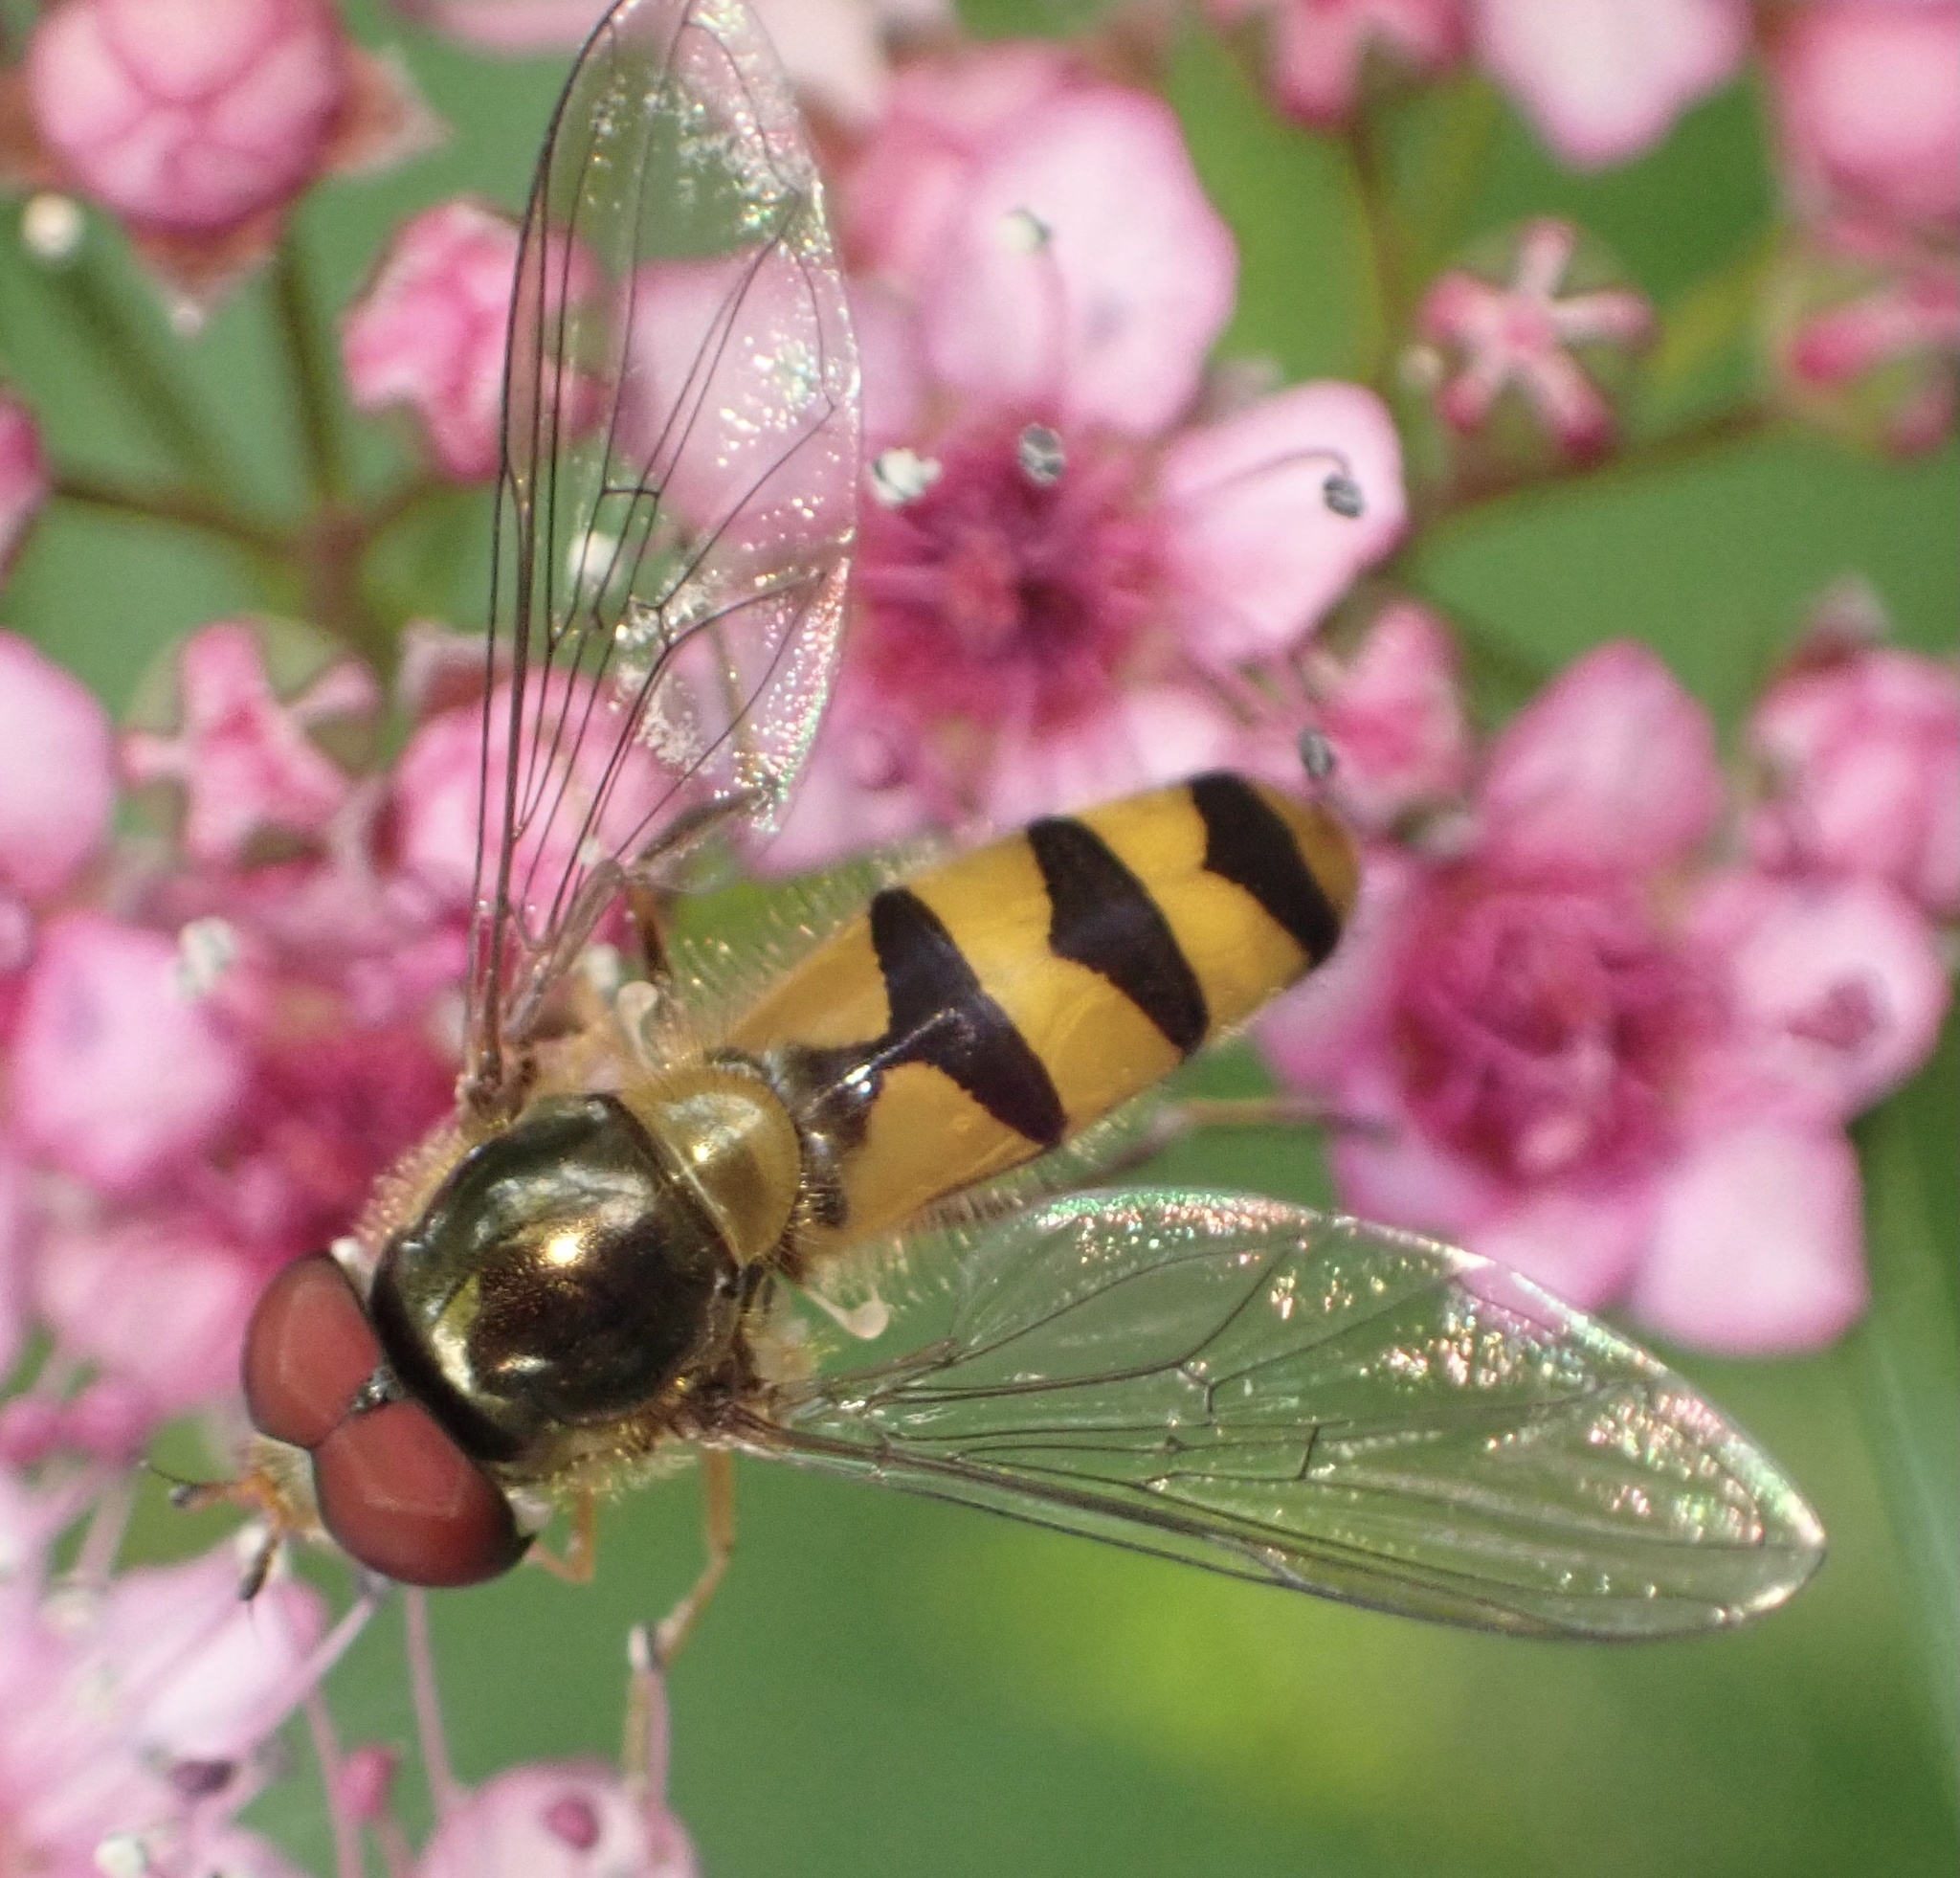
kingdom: Animalia
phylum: Arthropoda
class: Insecta
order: Diptera
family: Syrphidae
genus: Meliscaeva
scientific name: Meliscaeva auricollis
